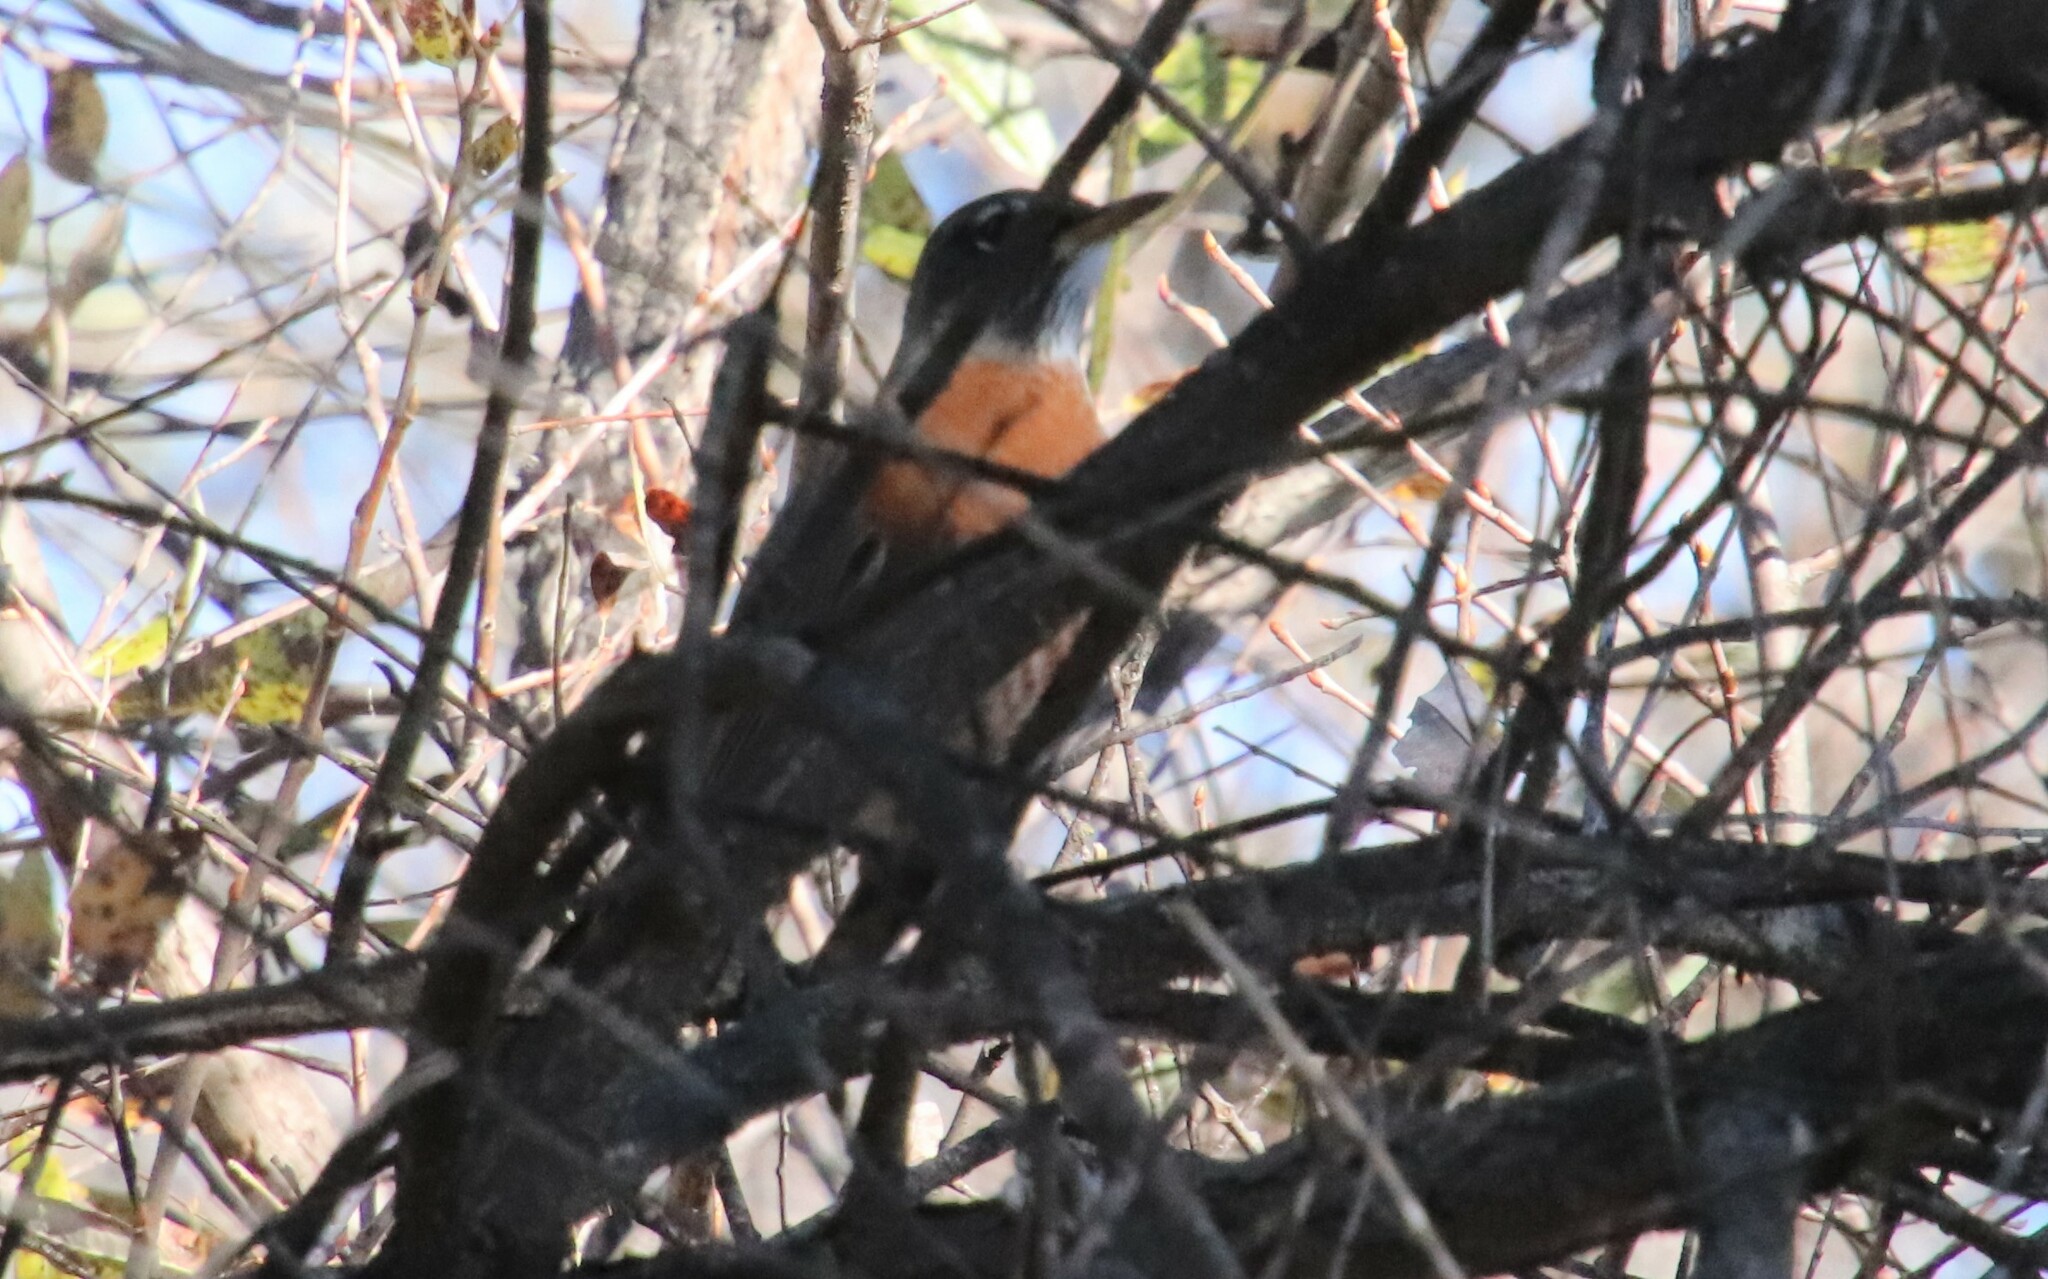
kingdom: Animalia
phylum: Chordata
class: Aves
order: Passeriformes
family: Turdidae
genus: Turdus
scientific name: Turdus migratorius
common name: American robin
